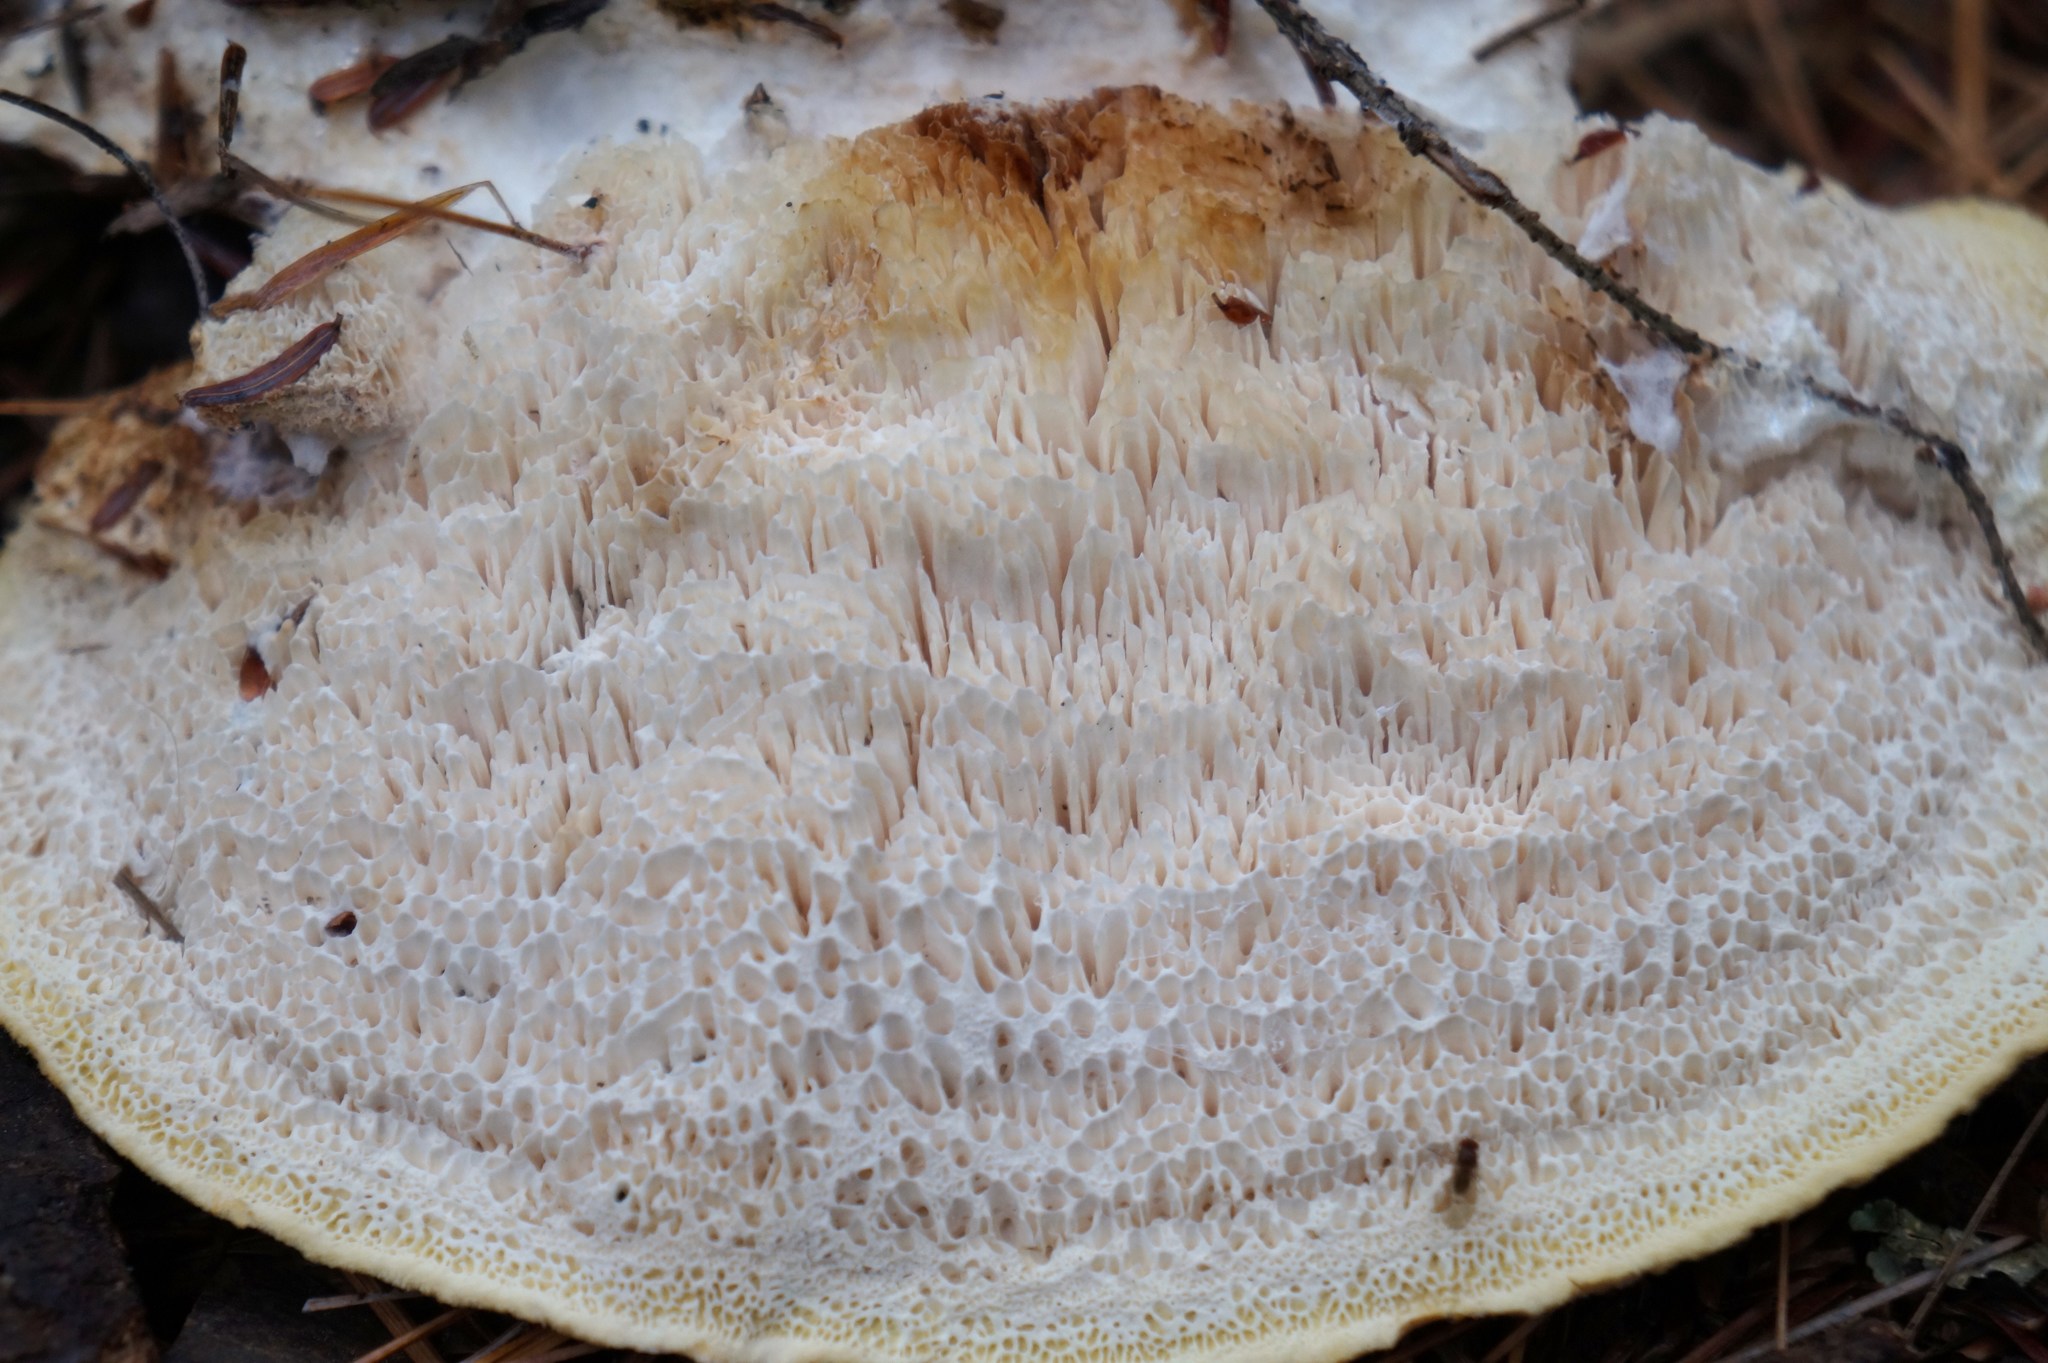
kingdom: Fungi
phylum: Basidiomycota
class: Agaricomycetes
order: Polyporales
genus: Fuscopostia
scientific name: Fuscopostia fragilis
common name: Brown-staining cheese polypore
